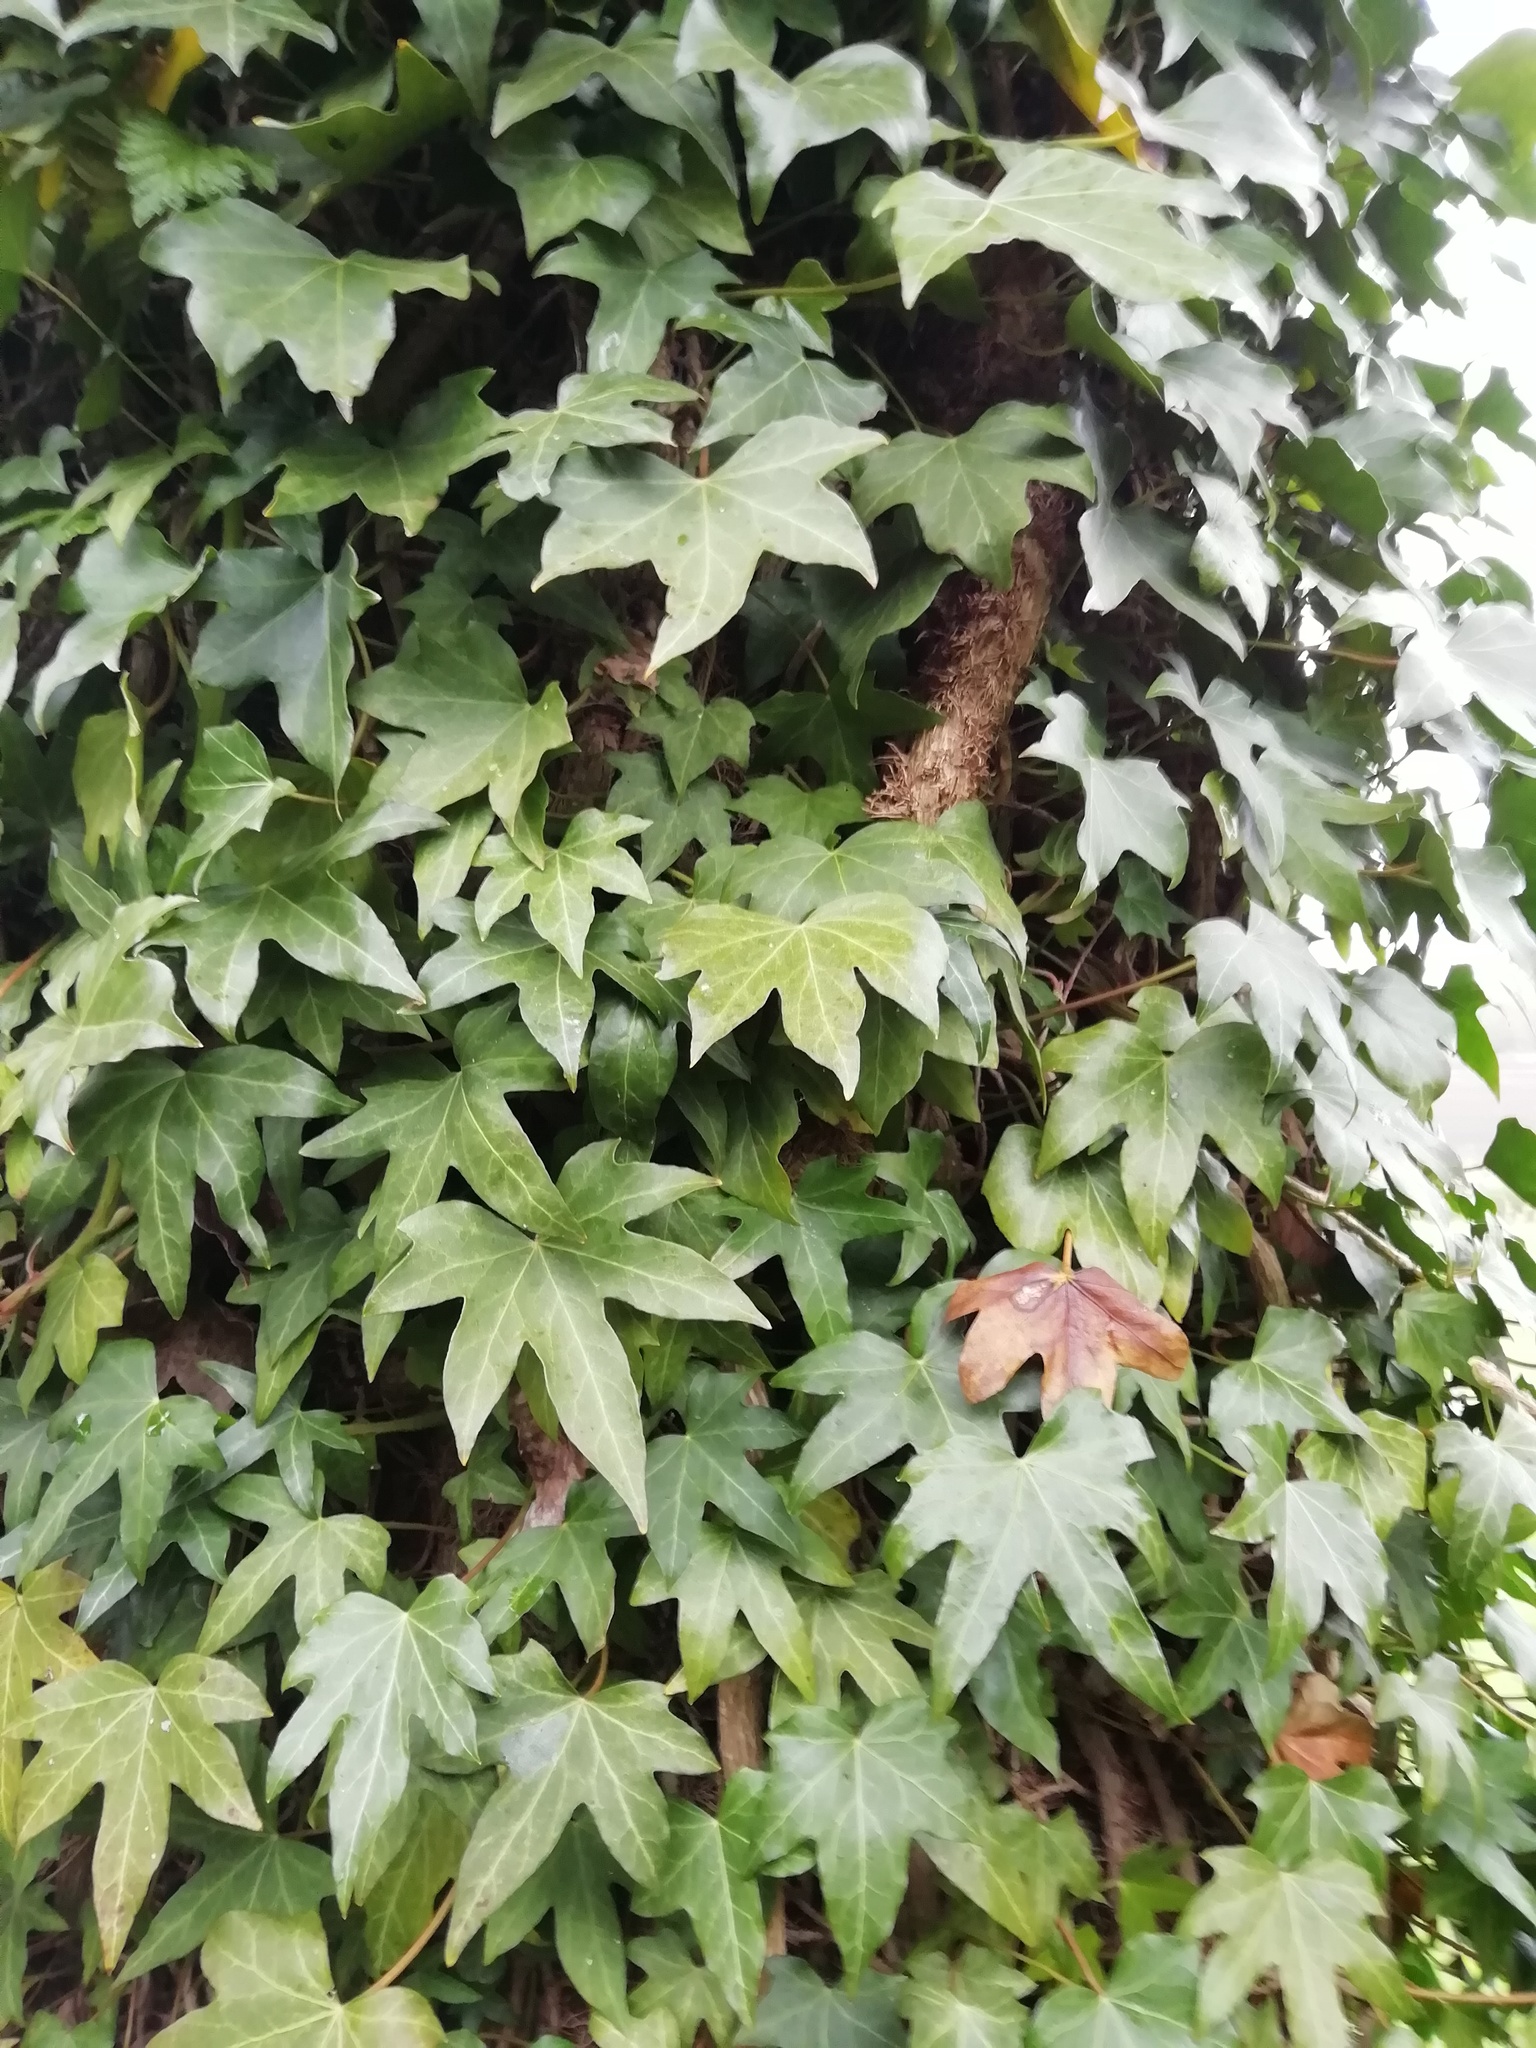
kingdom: Plantae
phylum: Tracheophyta
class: Magnoliopsida
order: Apiales
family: Araliaceae
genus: Hedera
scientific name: Hedera helix
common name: Ivy
